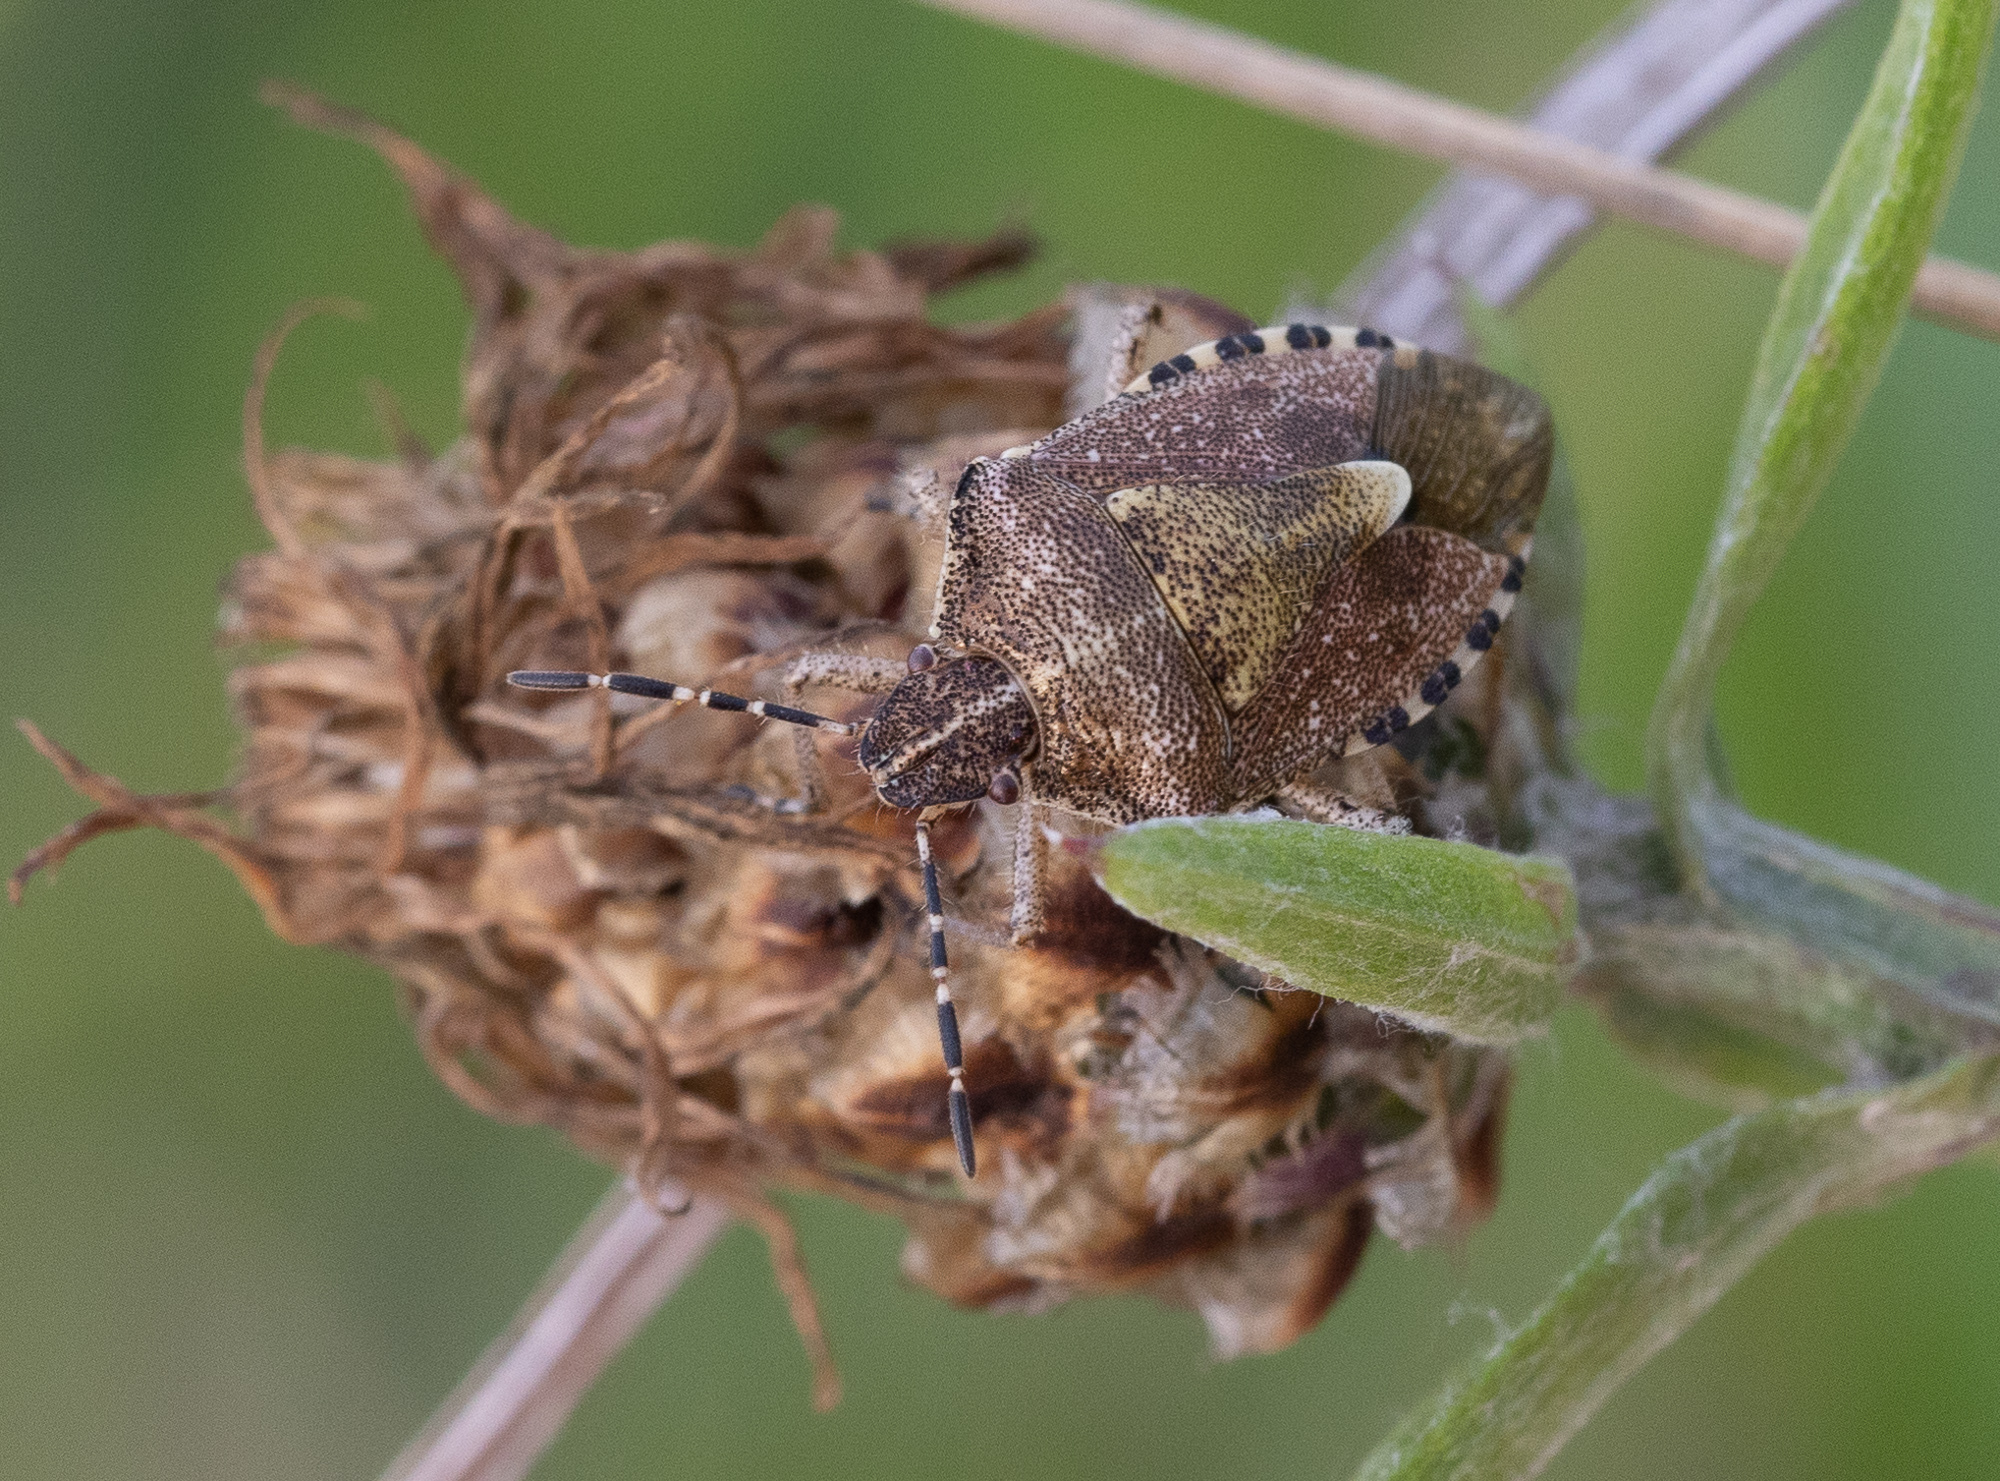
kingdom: Animalia
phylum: Arthropoda
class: Insecta
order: Hemiptera
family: Pentatomidae
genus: Dolycoris
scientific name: Dolycoris baccarum
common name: Sloe bug
